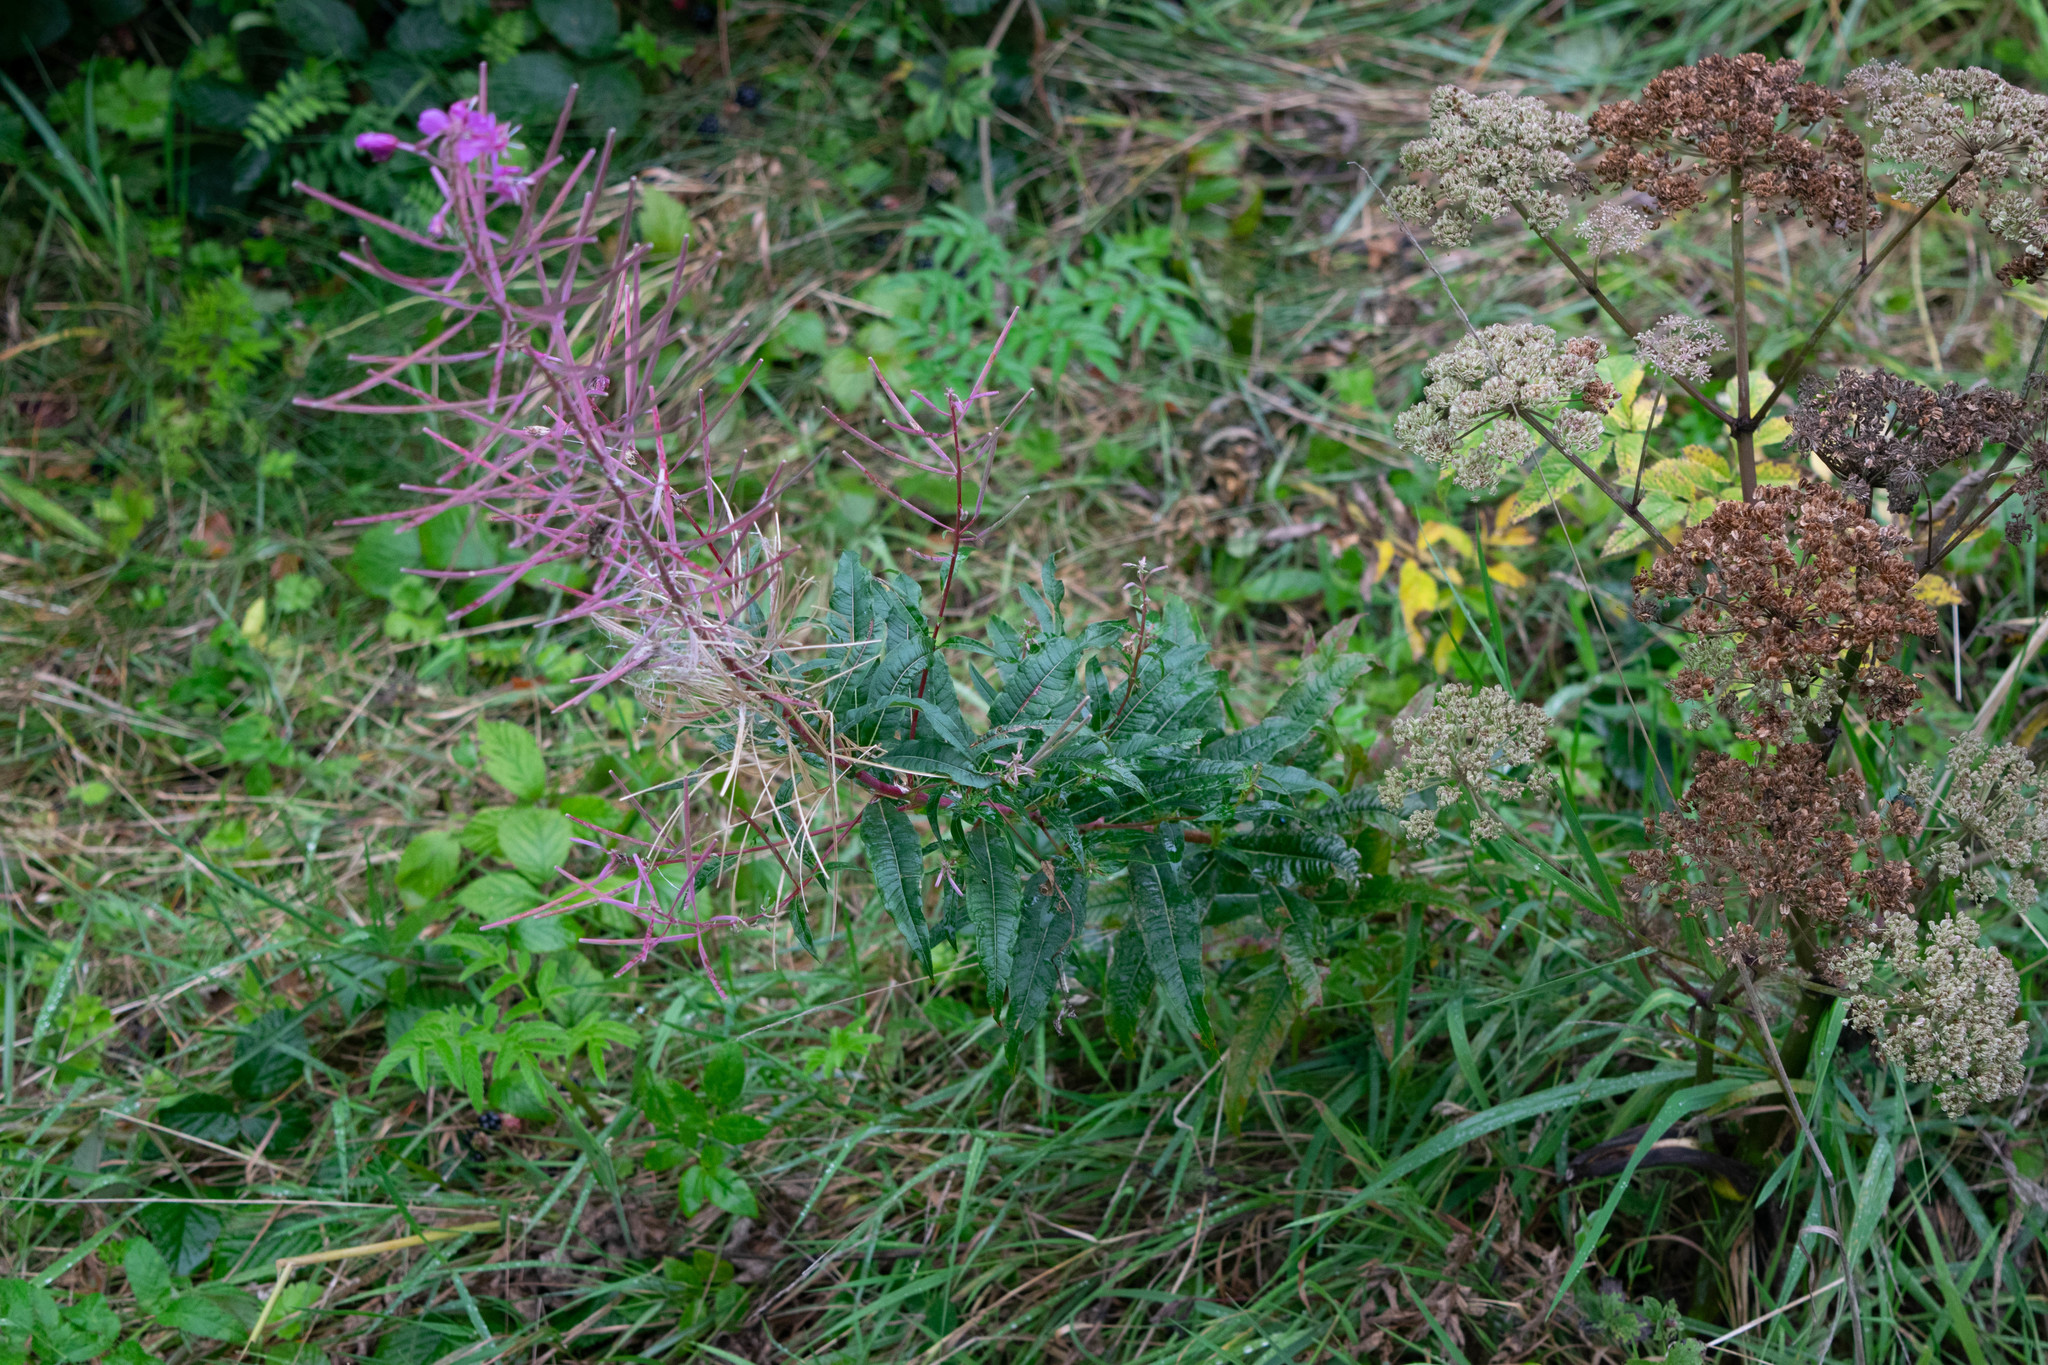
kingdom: Plantae
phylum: Tracheophyta
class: Magnoliopsida
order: Myrtales
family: Onagraceae
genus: Chamaenerion
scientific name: Chamaenerion angustifolium
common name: Fireweed
